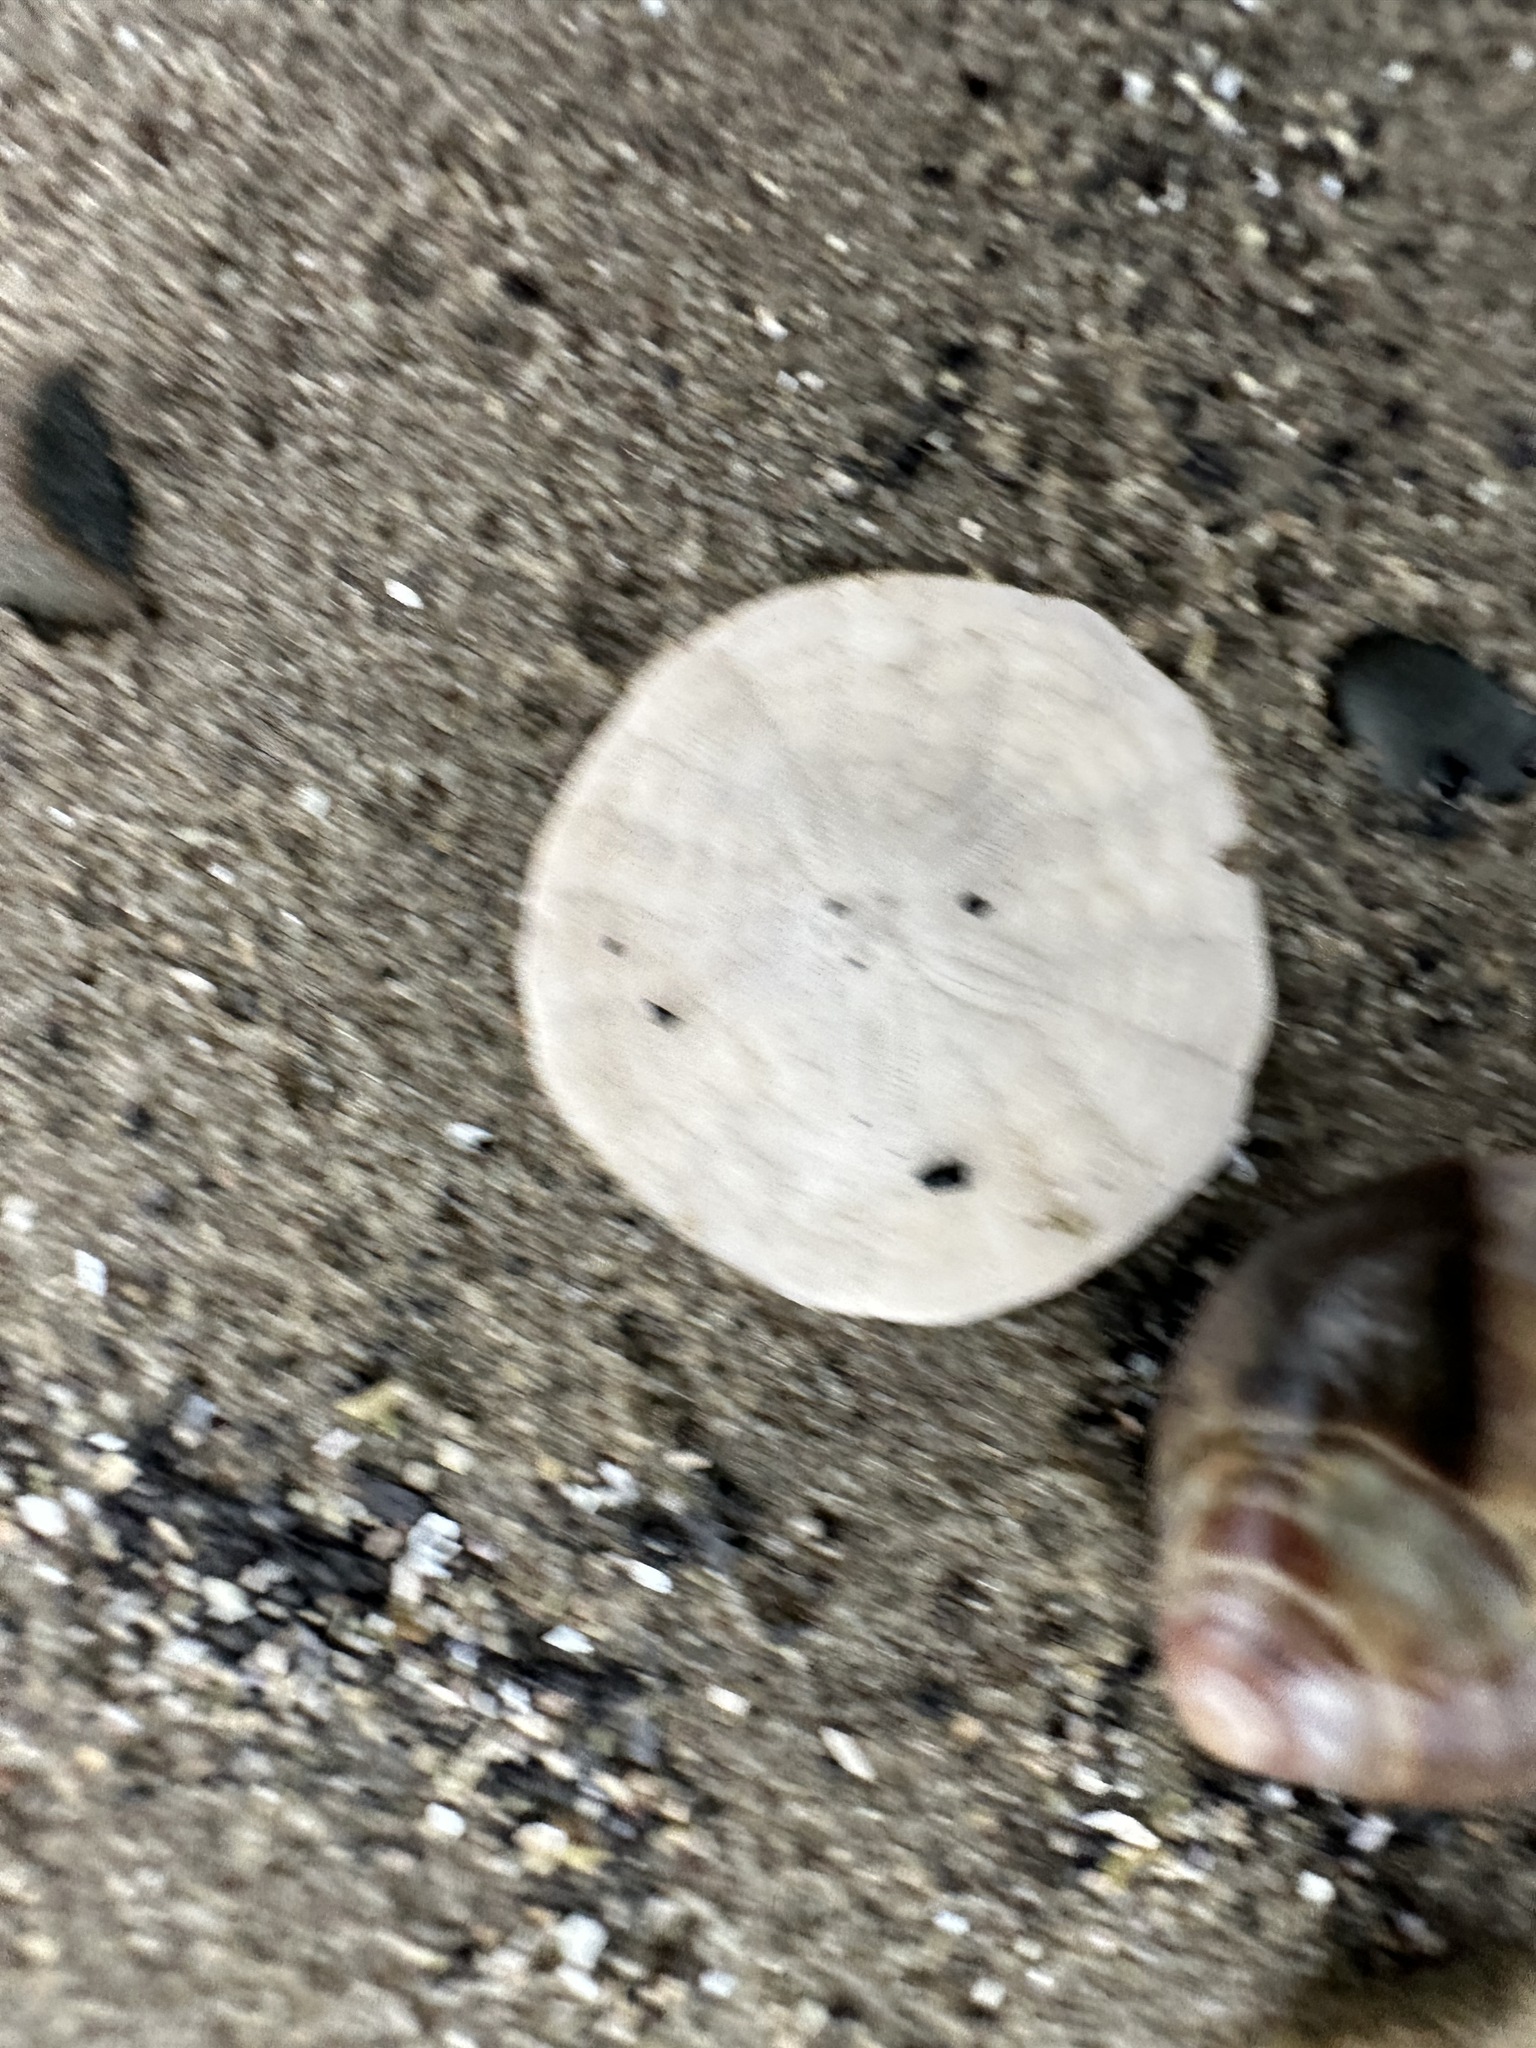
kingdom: Animalia
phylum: Echinodermata
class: Echinoidea
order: Echinolampadacea
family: Echinarachniidae
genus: Echinarachnius
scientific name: Echinarachnius parma
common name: Common sand dollar
